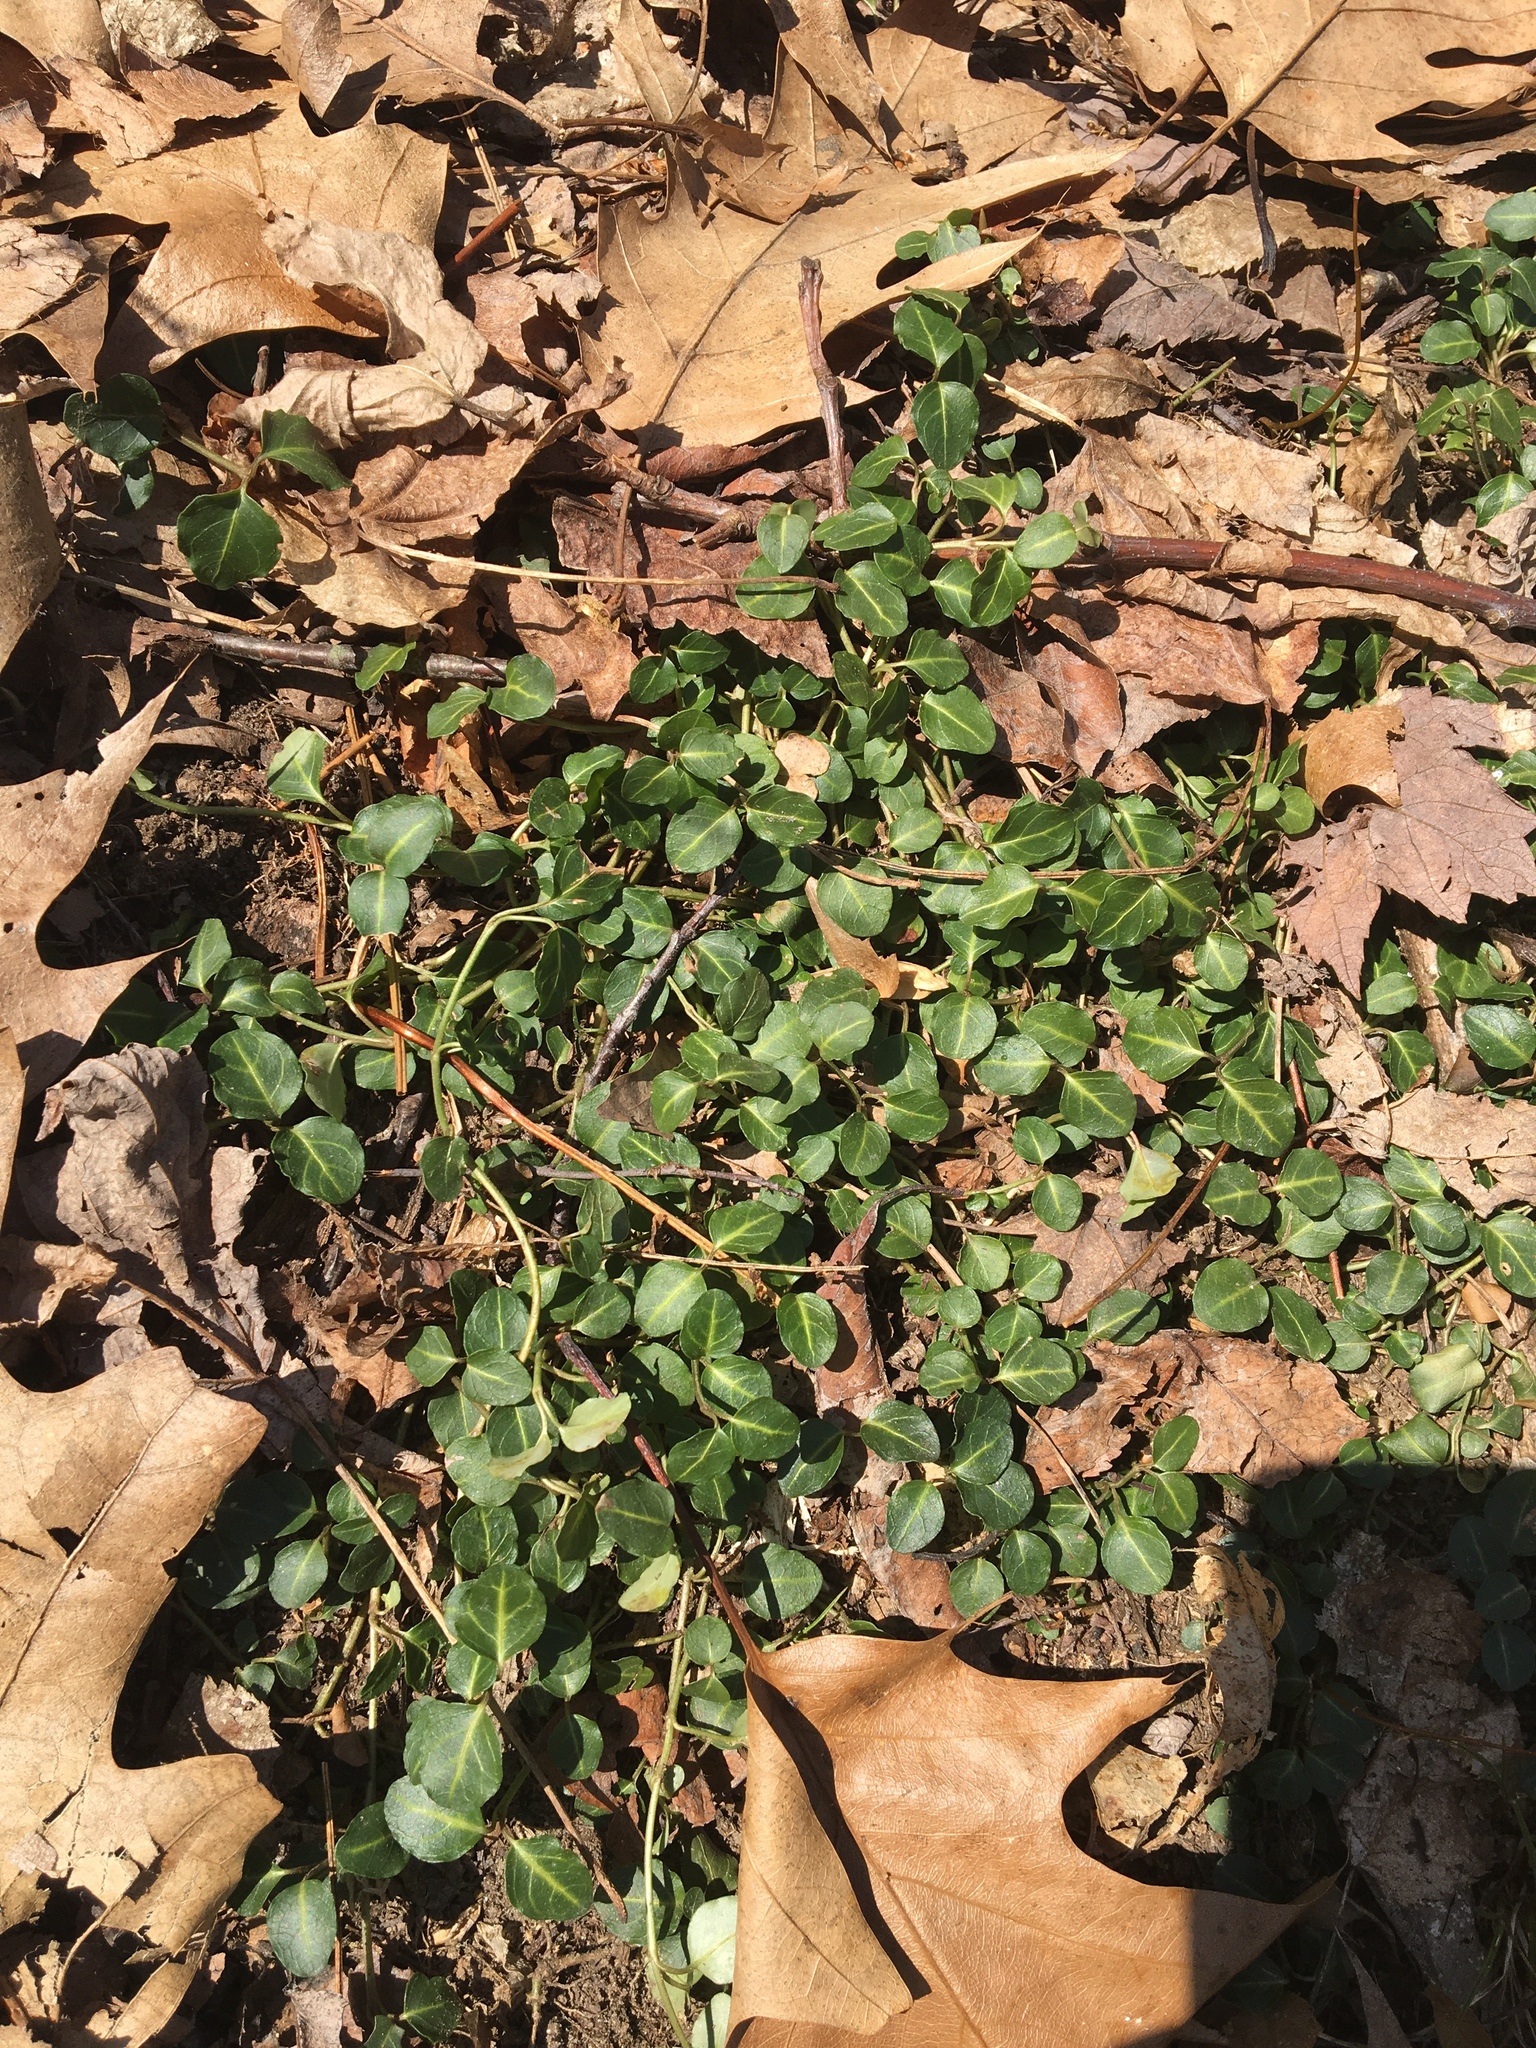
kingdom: Plantae
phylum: Tracheophyta
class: Magnoliopsida
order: Gentianales
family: Rubiaceae
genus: Mitchella
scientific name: Mitchella repens
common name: Partridge-berry
